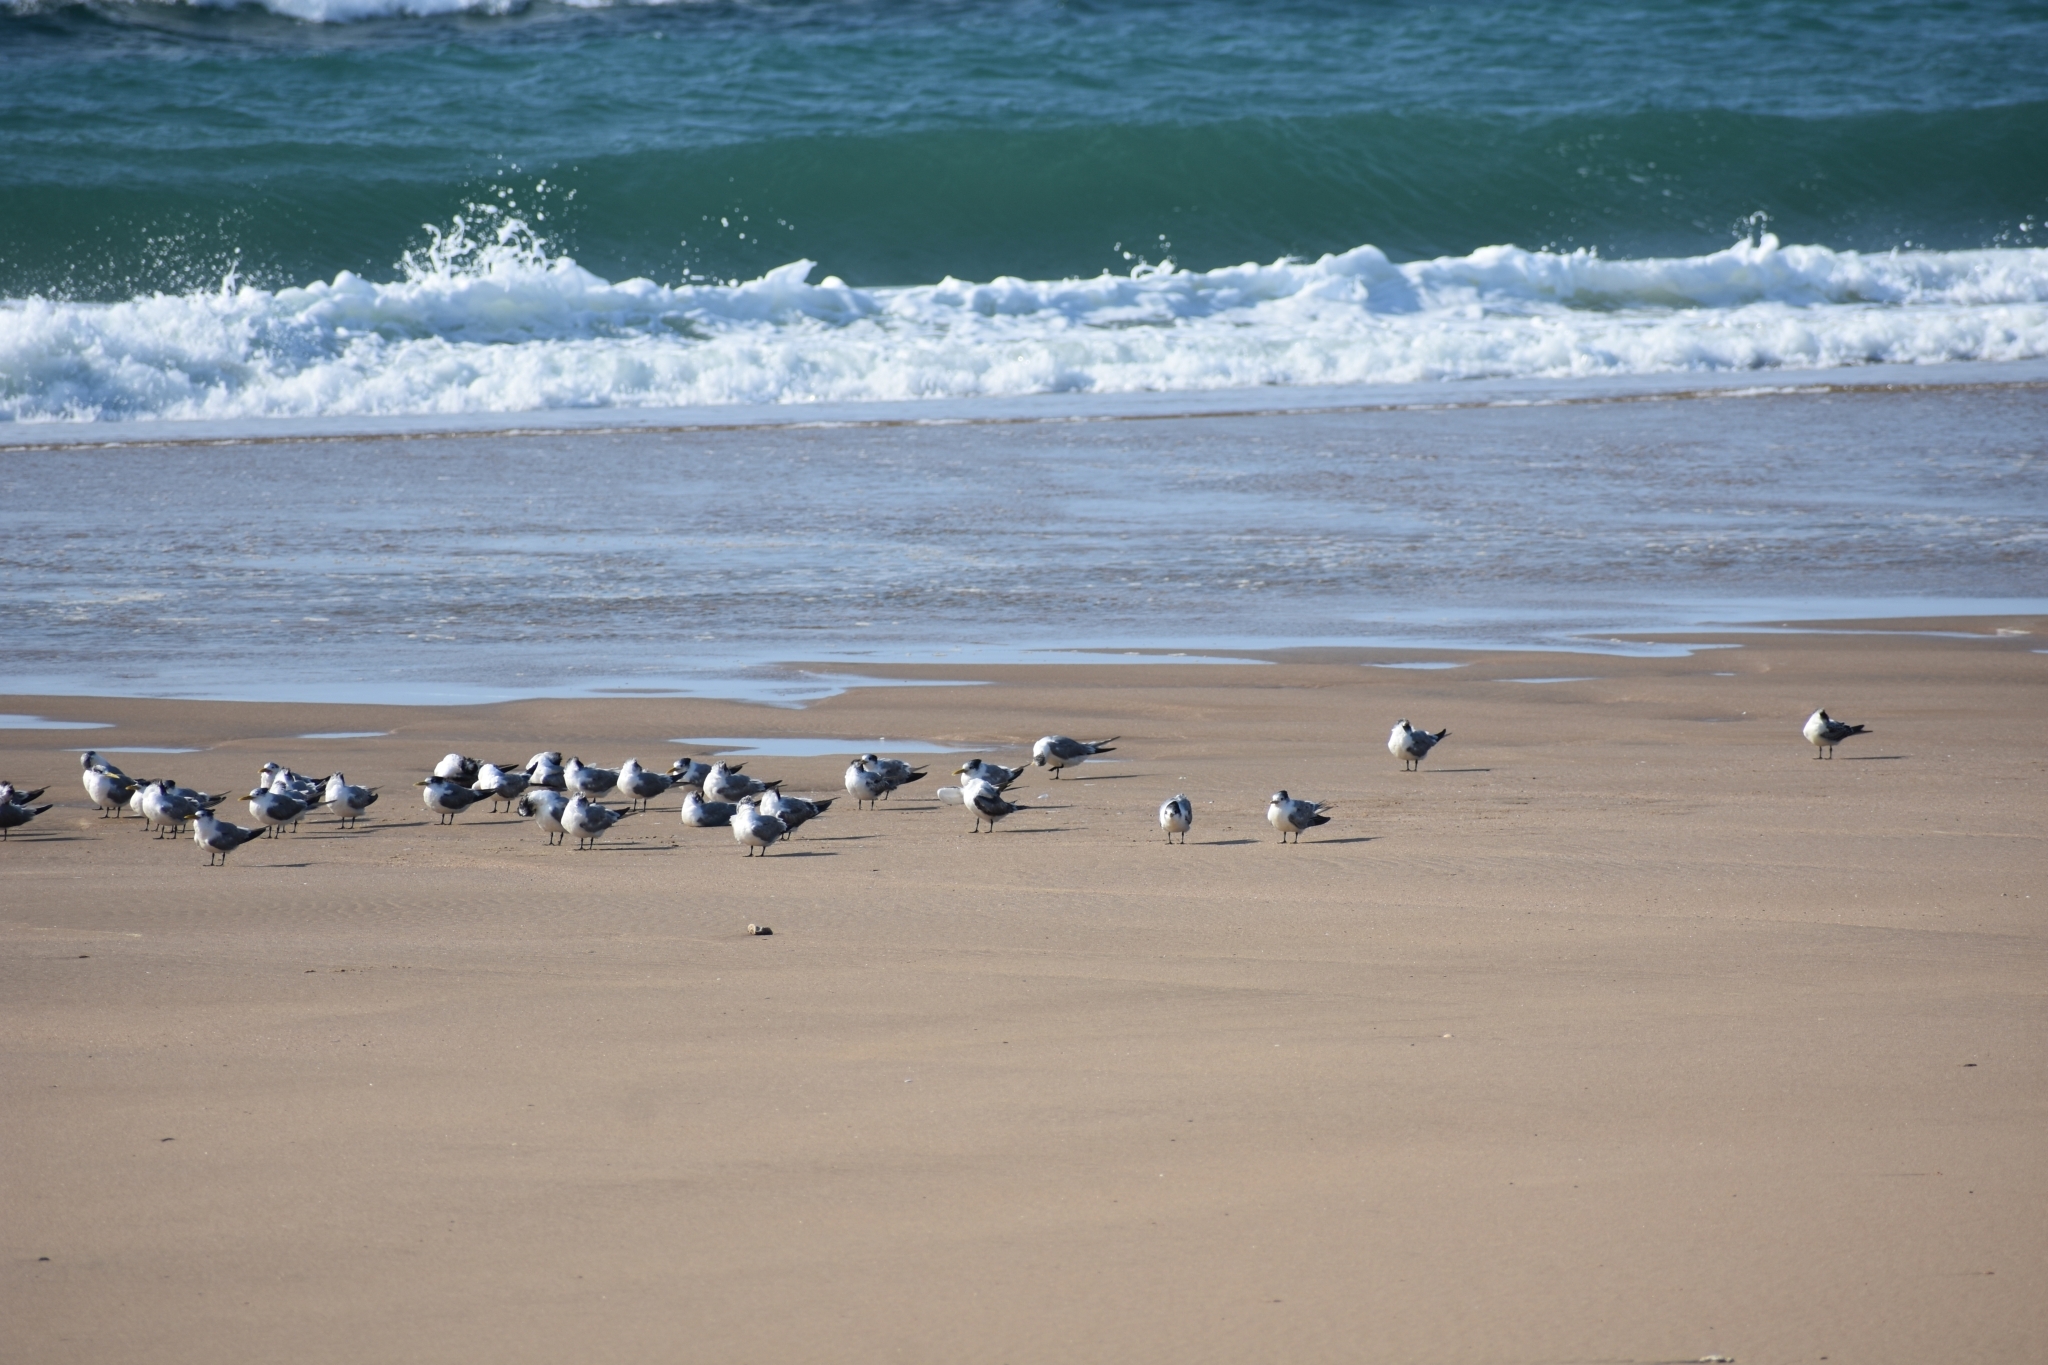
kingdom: Animalia
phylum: Chordata
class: Aves
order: Charadriiformes
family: Laridae
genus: Thalasseus
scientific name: Thalasseus bergii
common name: Greater crested tern
